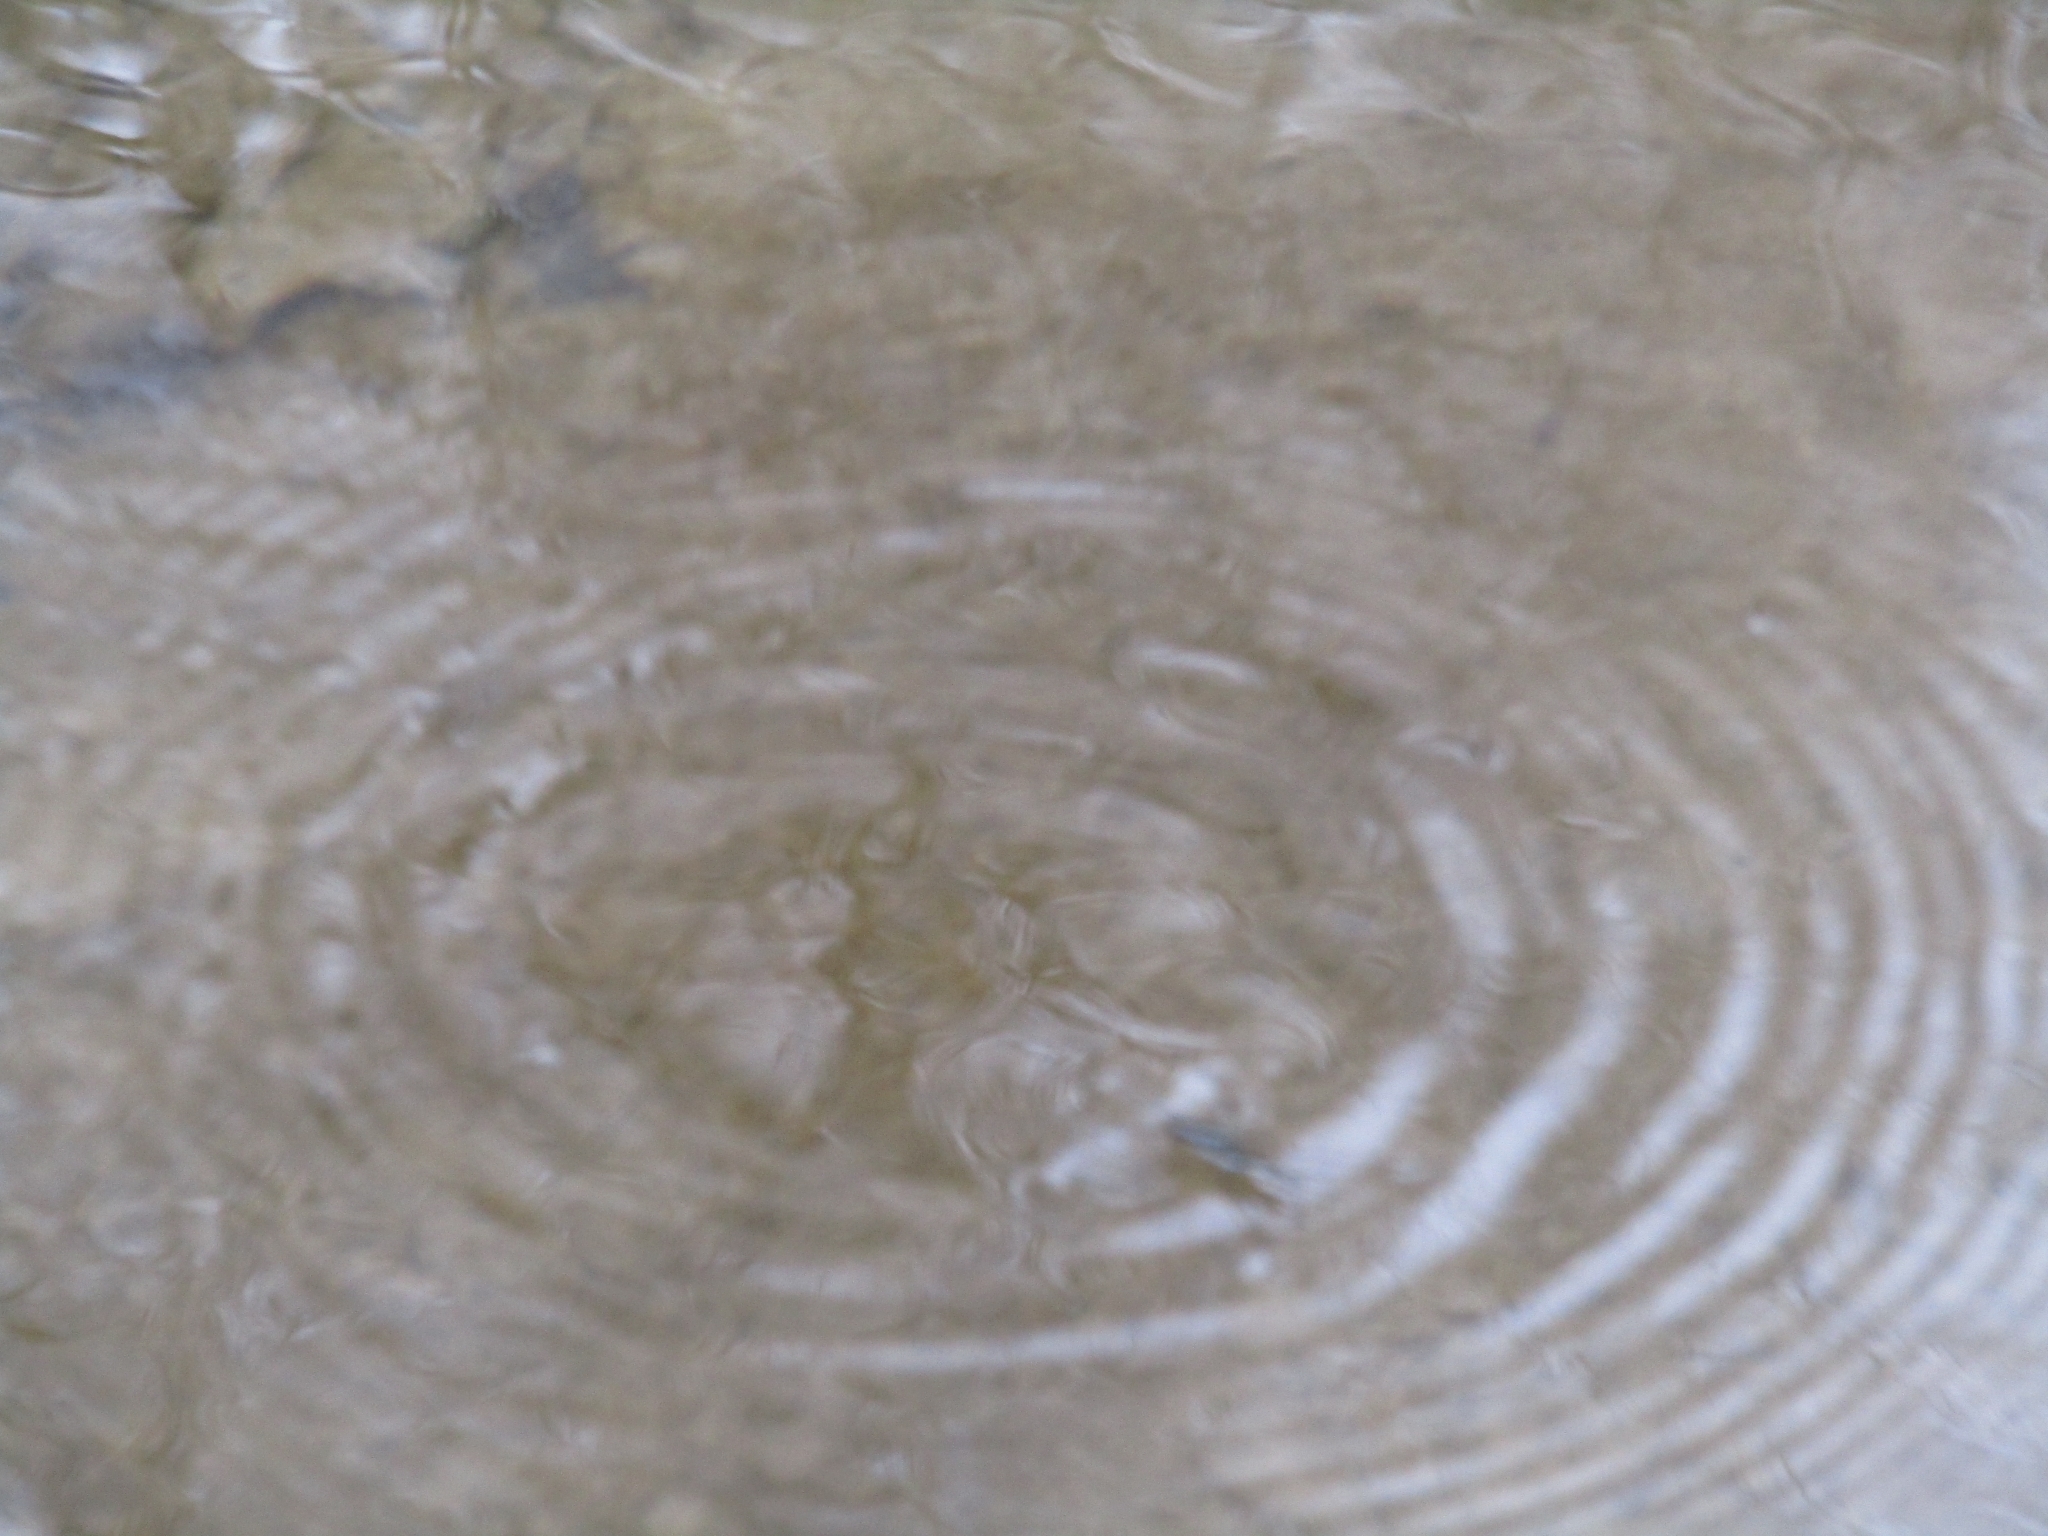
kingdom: Animalia
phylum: Arthropoda
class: Insecta
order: Hemiptera
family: Gerridae
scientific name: Gerridae
